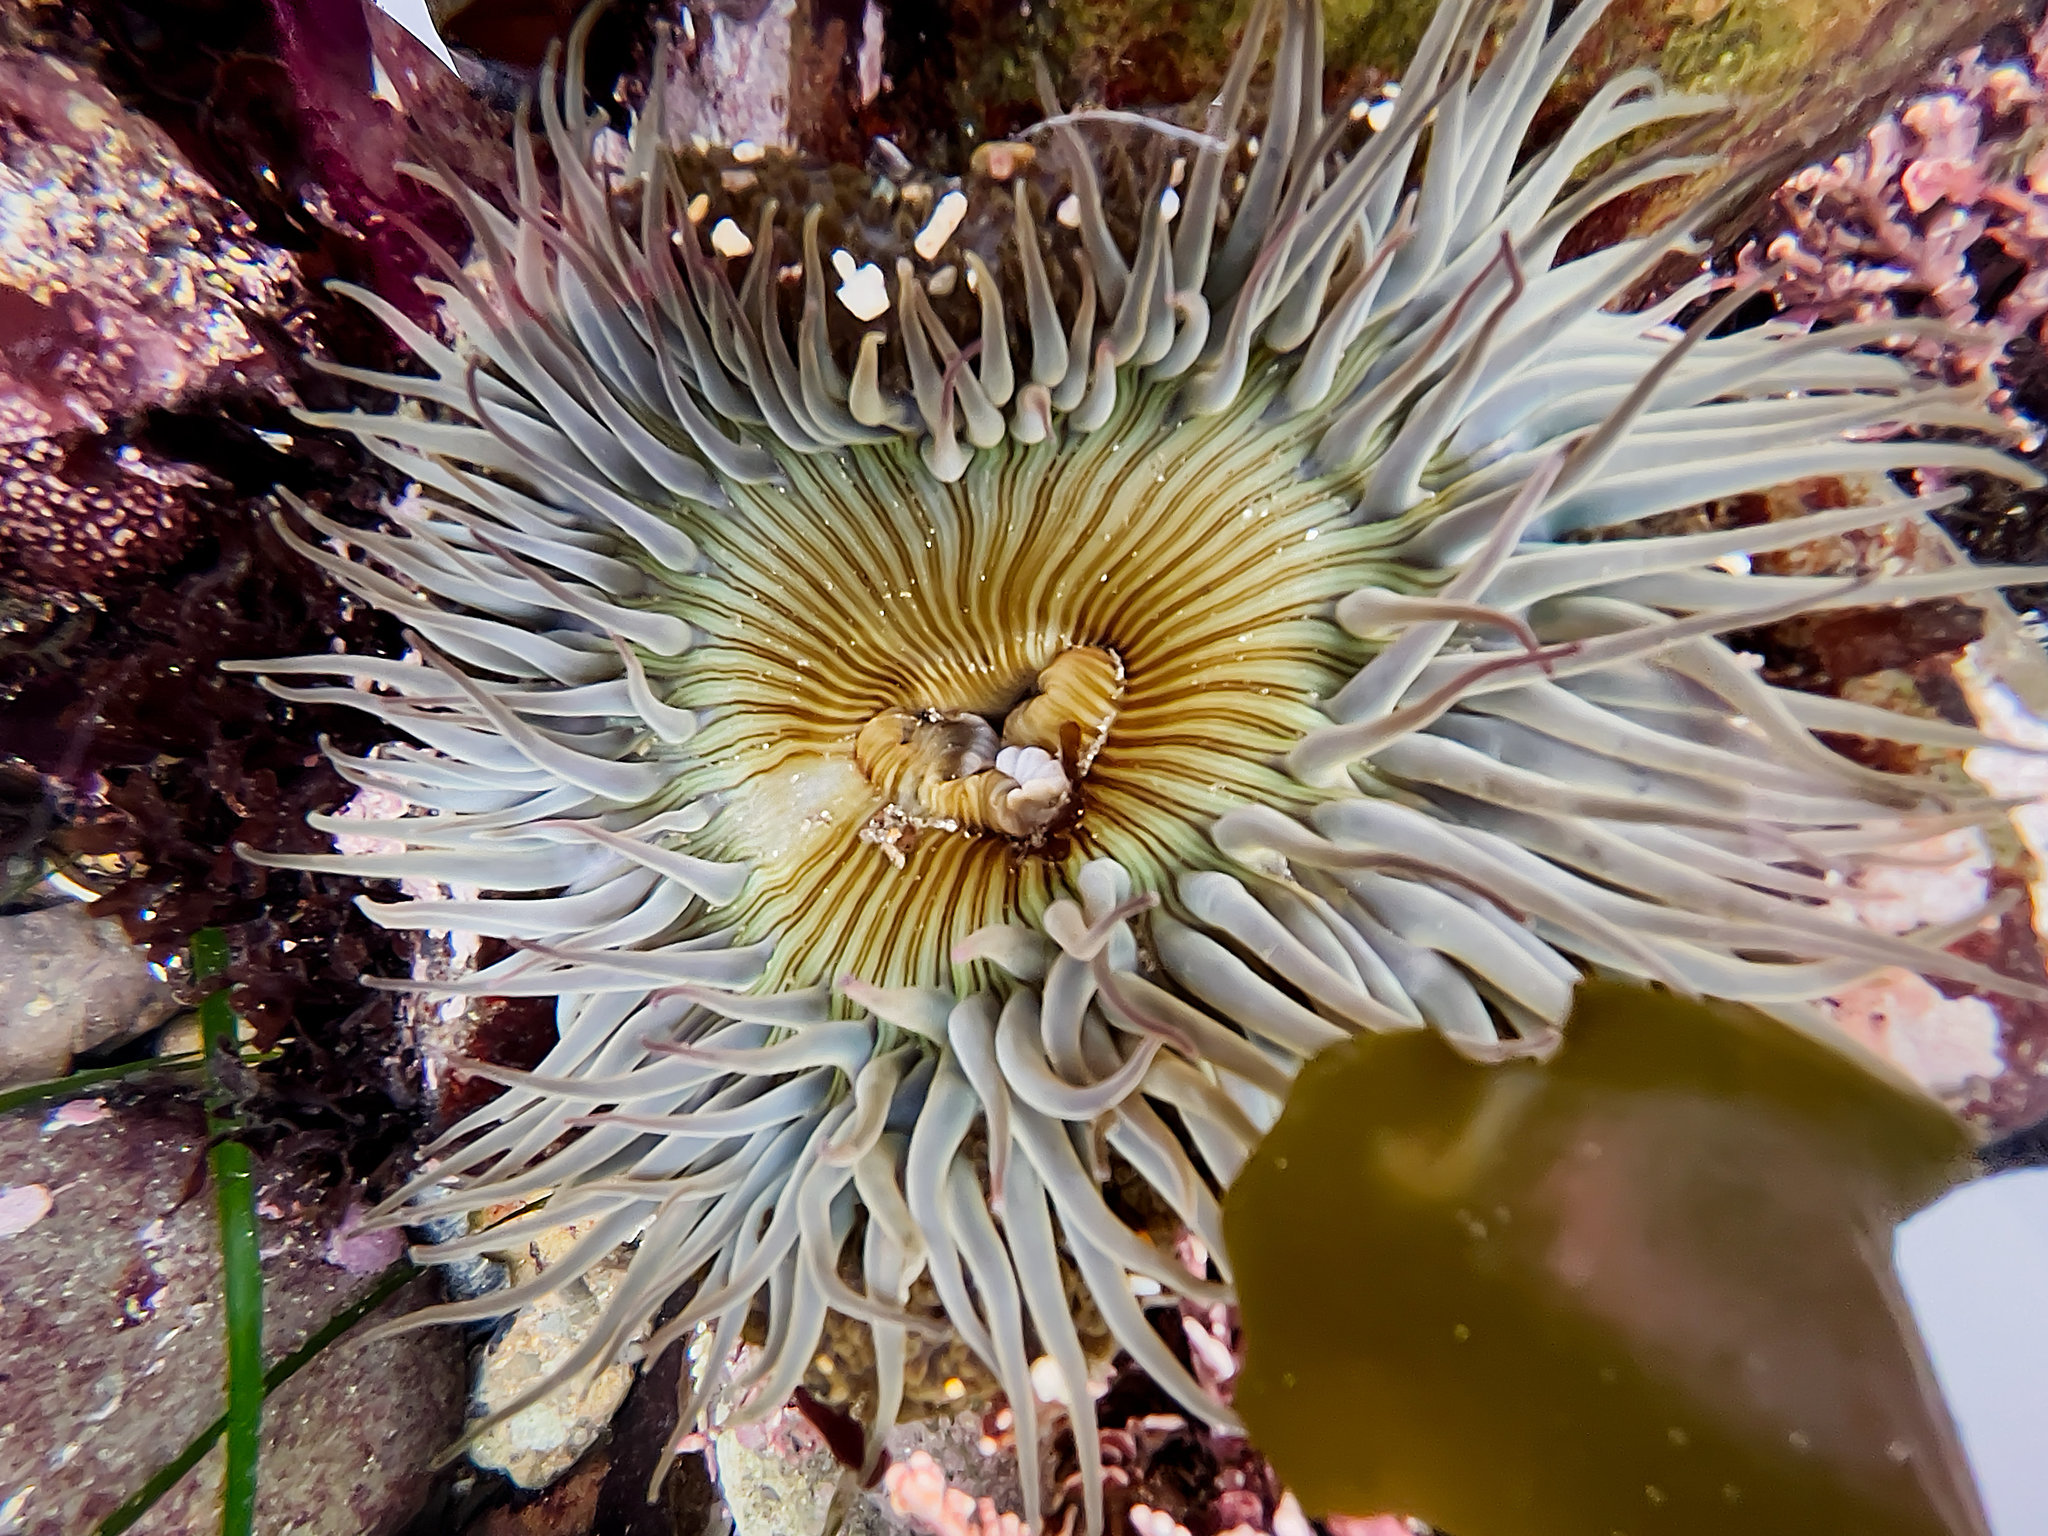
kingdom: Animalia
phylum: Cnidaria
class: Anthozoa
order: Actiniaria
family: Actiniidae
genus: Anthopleura
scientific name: Anthopleura sola
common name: Sun anemone
